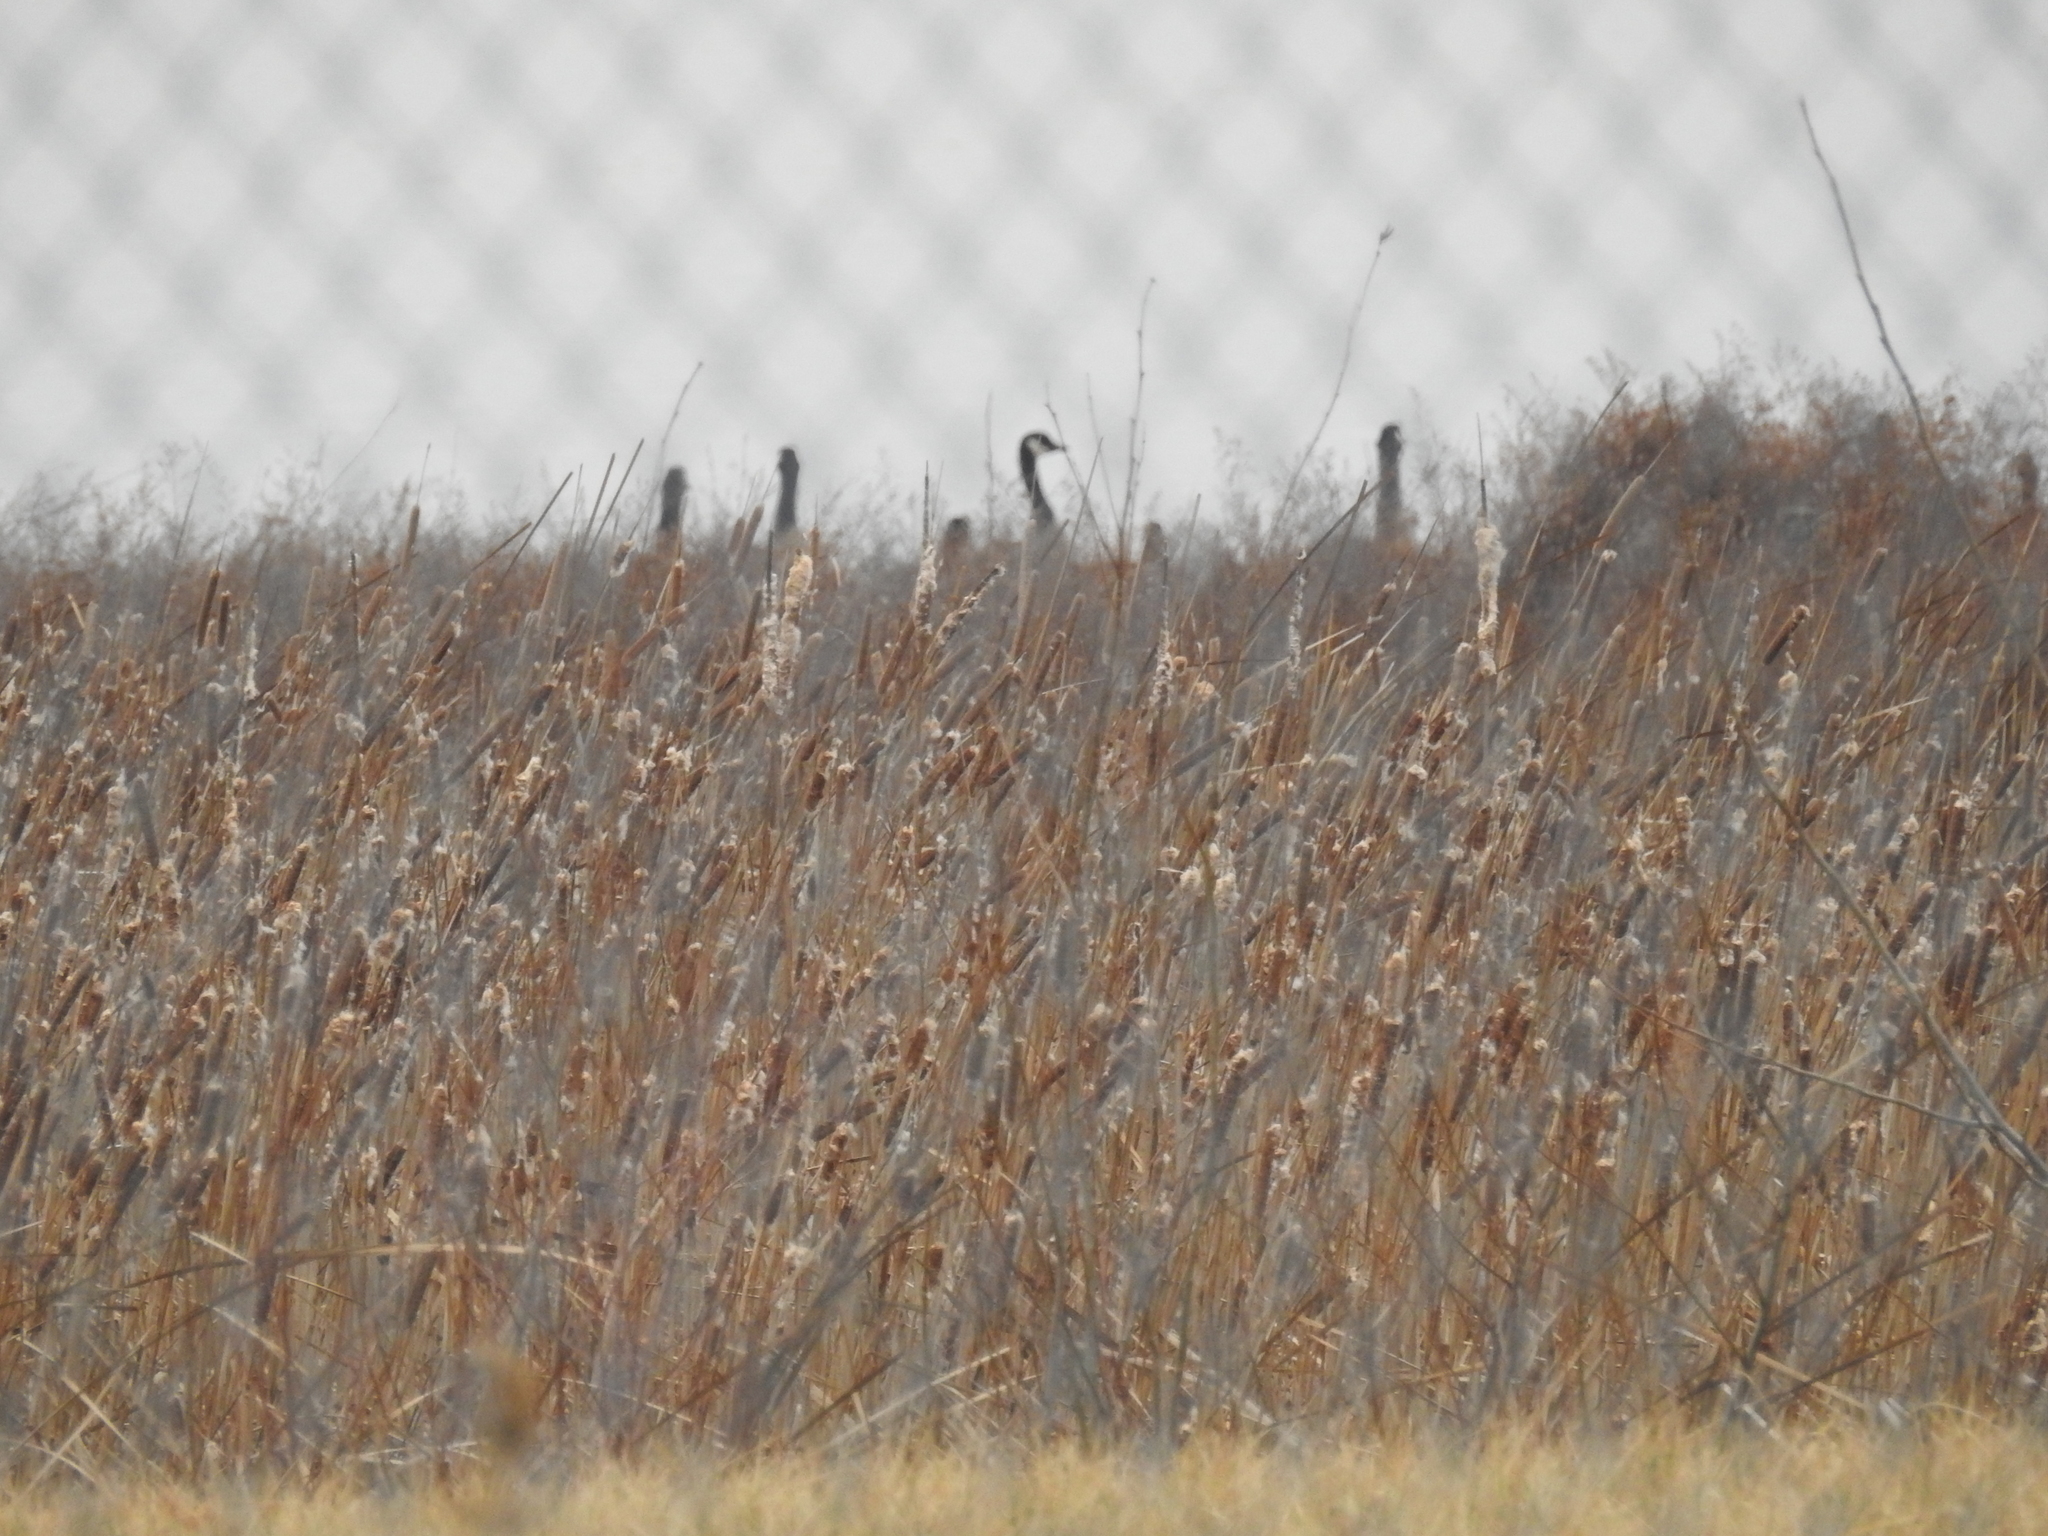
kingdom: Animalia
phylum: Chordata
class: Aves
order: Anseriformes
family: Anatidae
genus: Branta
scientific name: Branta canadensis
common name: Canada goose
